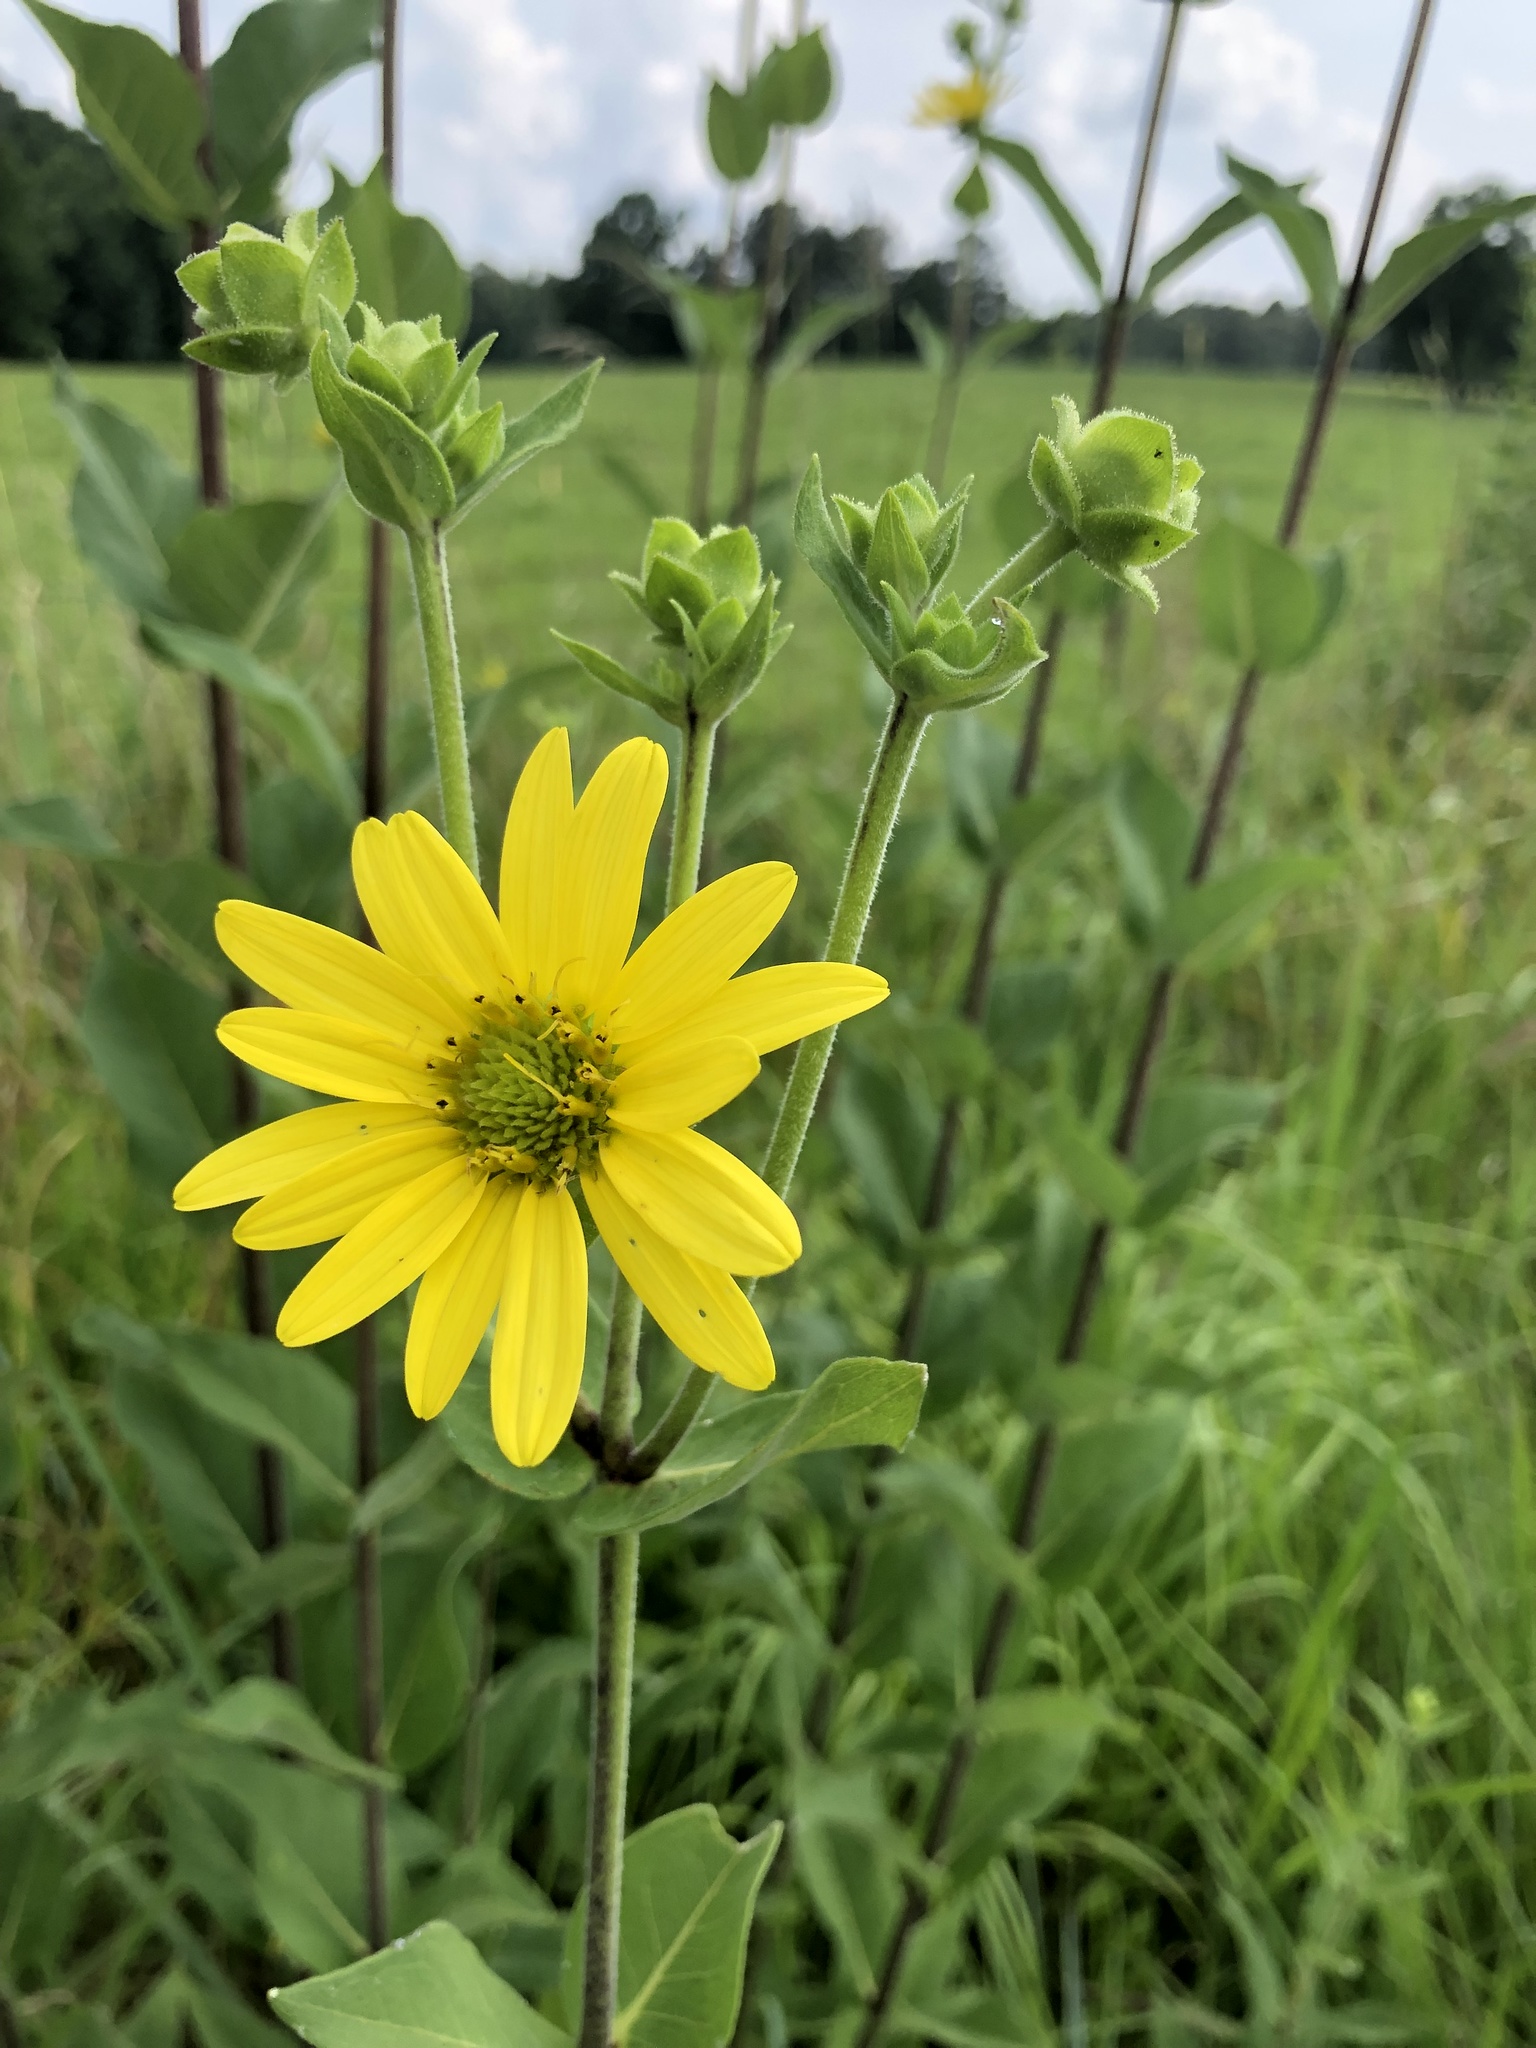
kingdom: Plantae
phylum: Tracheophyta
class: Magnoliopsida
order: Asterales
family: Asteraceae
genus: Silphium
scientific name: Silphium integrifolium
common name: Whole-leaf rosinweed
